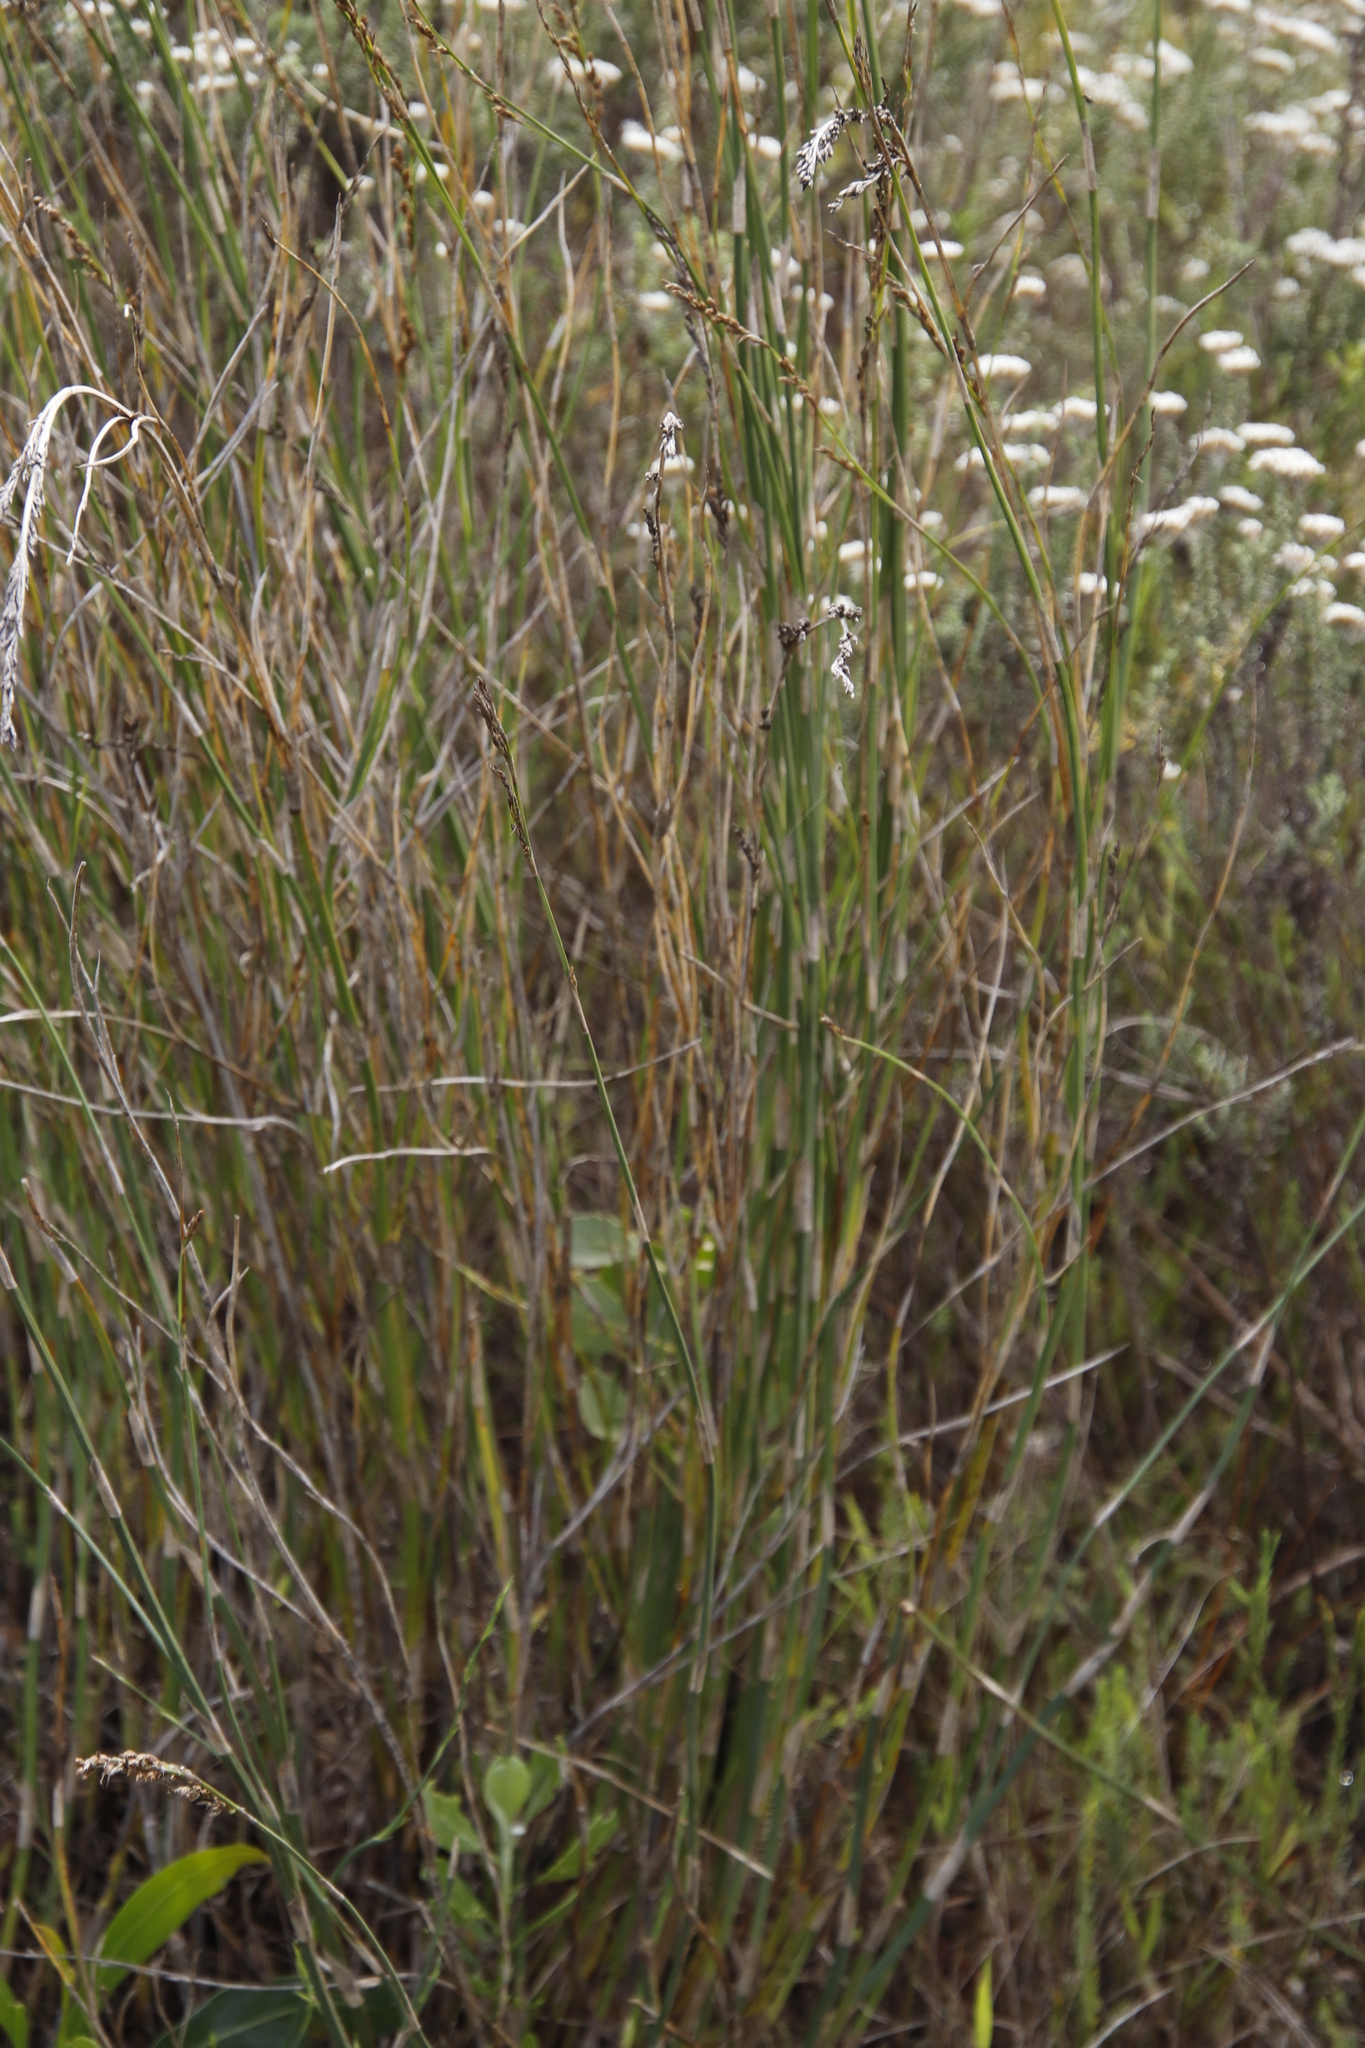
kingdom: Plantae
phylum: Tracheophyta
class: Liliopsida
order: Poales
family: Restionaceae
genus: Restio
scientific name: Restio tetragonus
